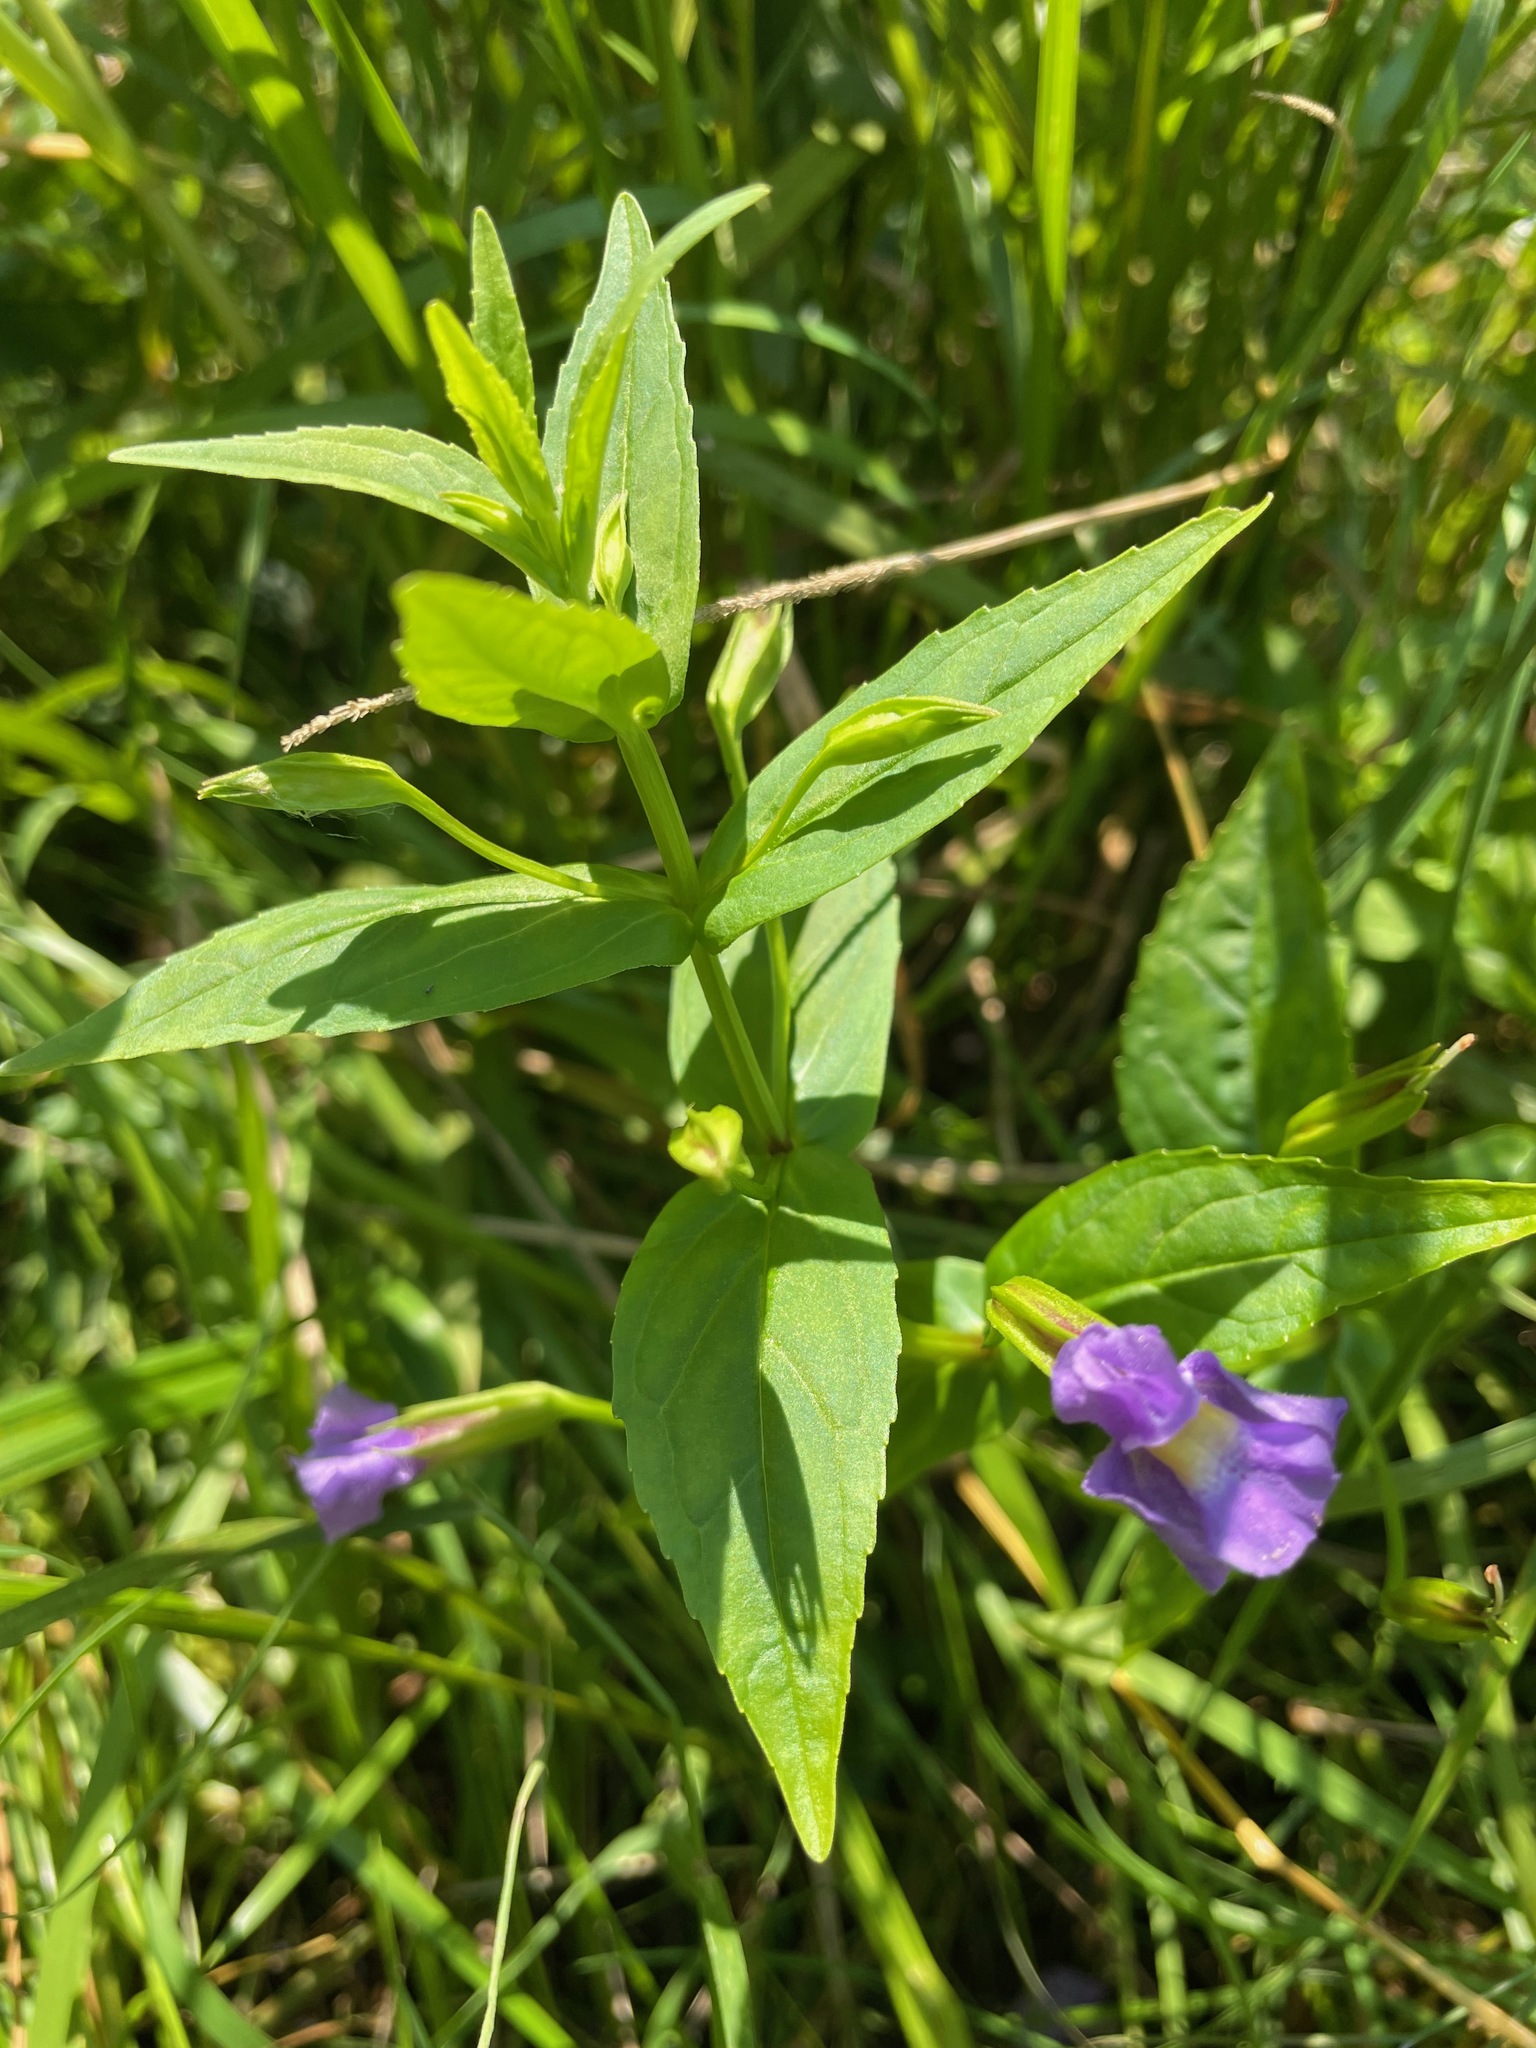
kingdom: Plantae
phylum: Tracheophyta
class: Magnoliopsida
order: Lamiales
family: Phrymaceae
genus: Mimulus
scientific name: Mimulus ringens
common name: Allegheny monkeyflower
